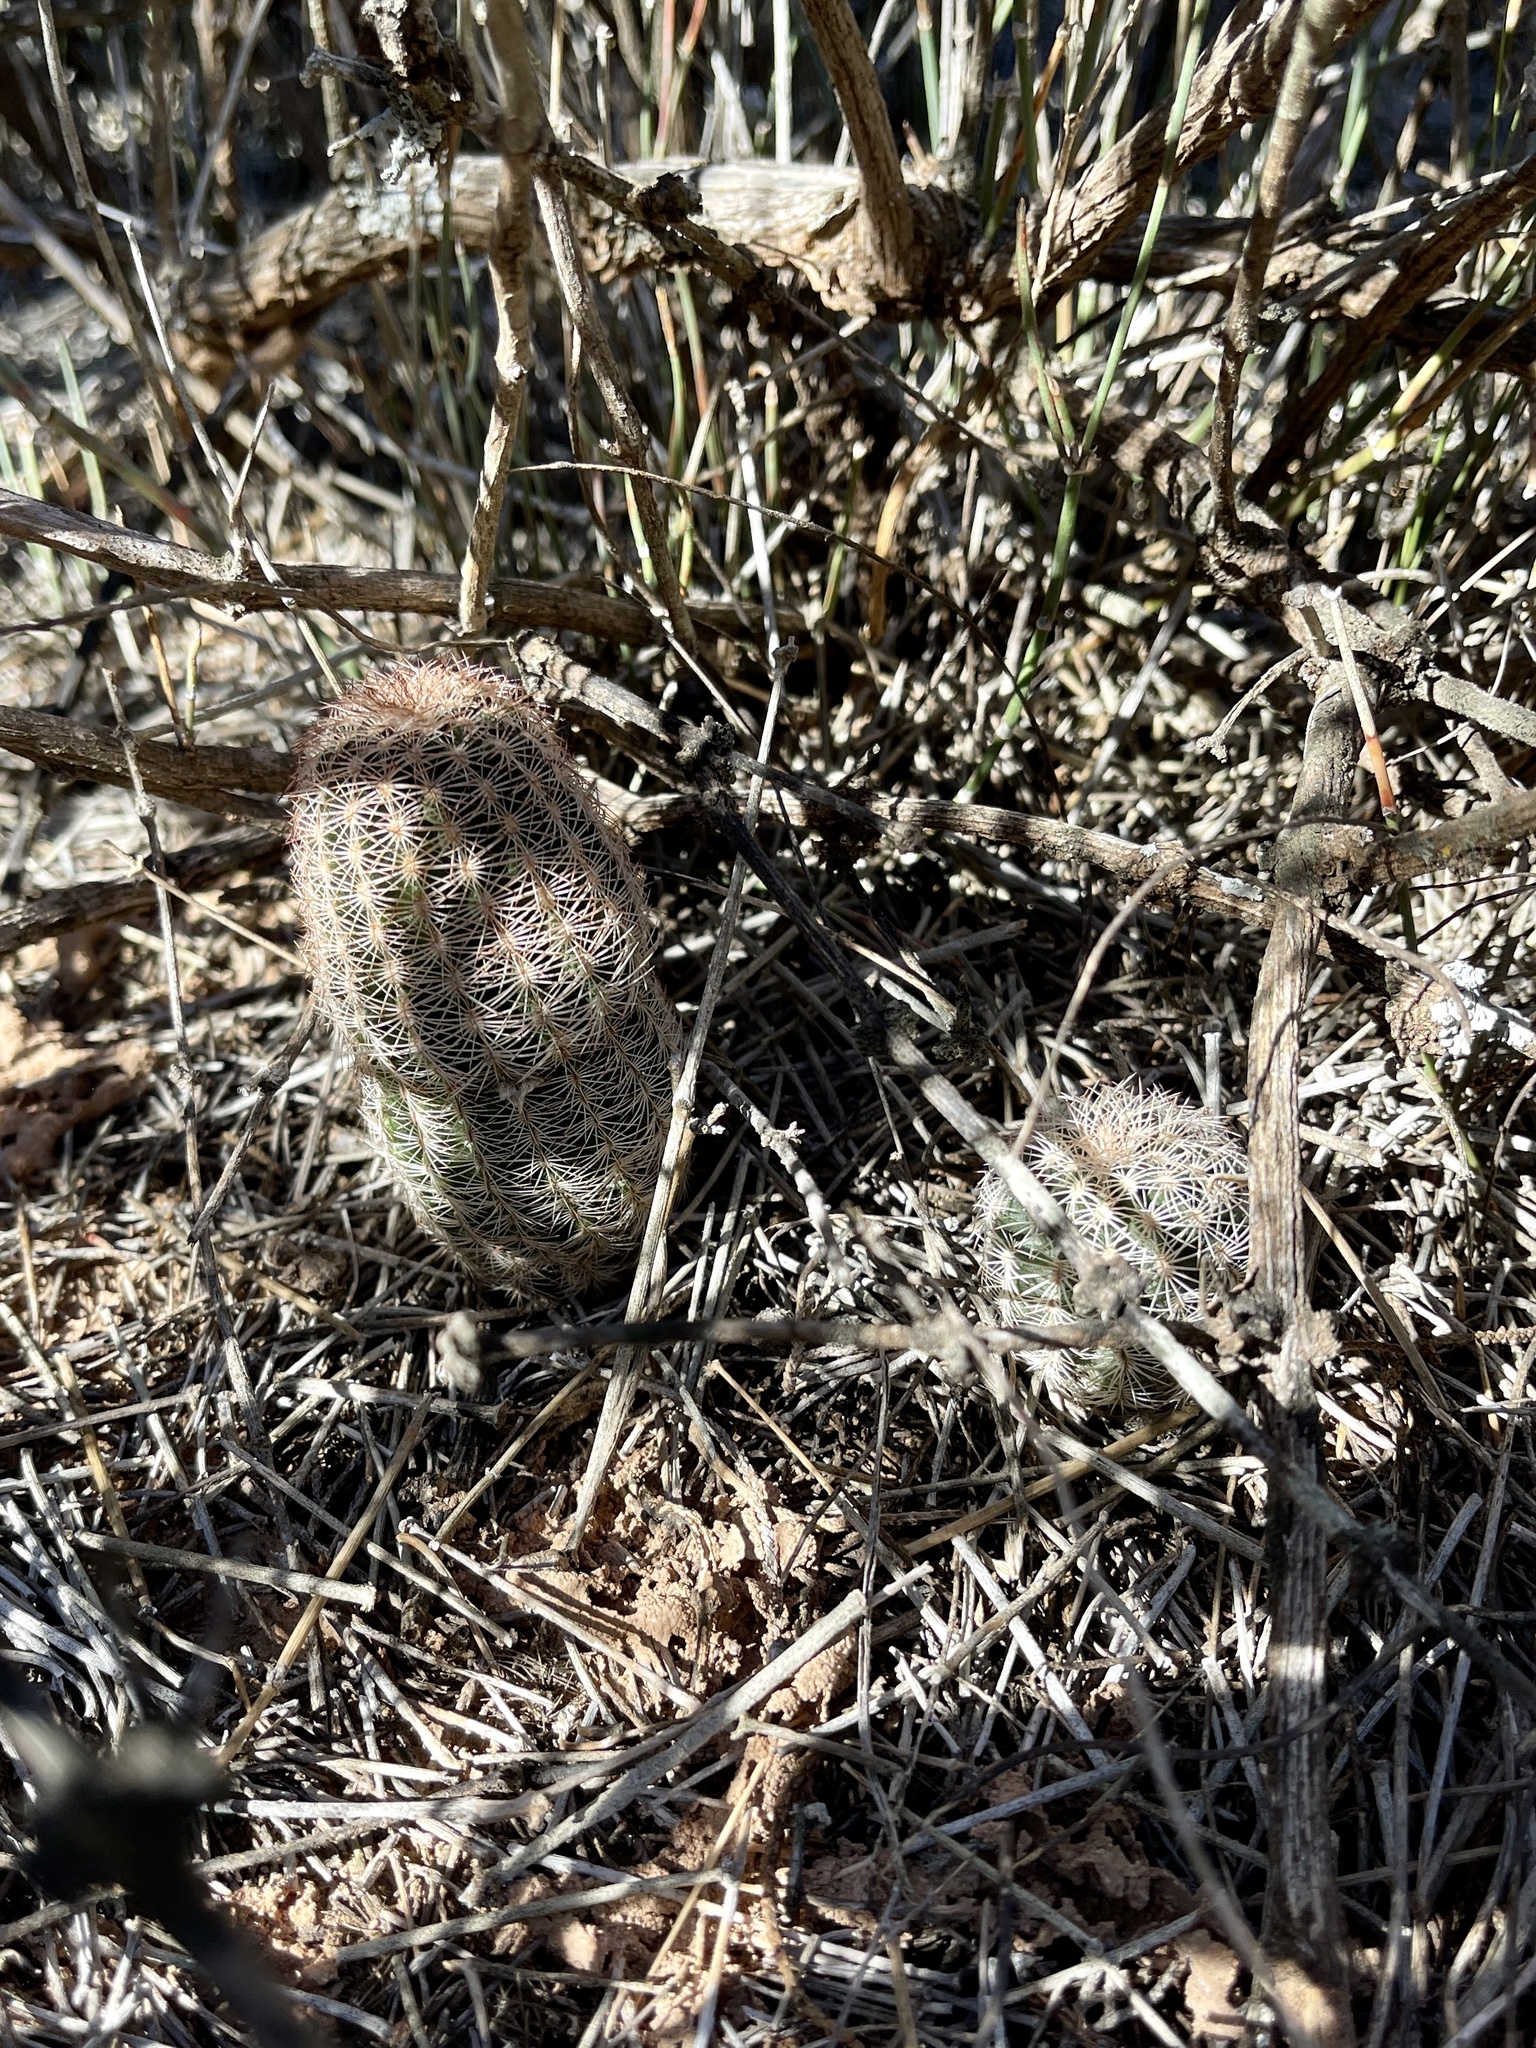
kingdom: Plantae
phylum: Tracheophyta
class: Magnoliopsida
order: Caryophyllales
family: Cactaceae
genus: Echinocereus
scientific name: Echinocereus reichenbachii
